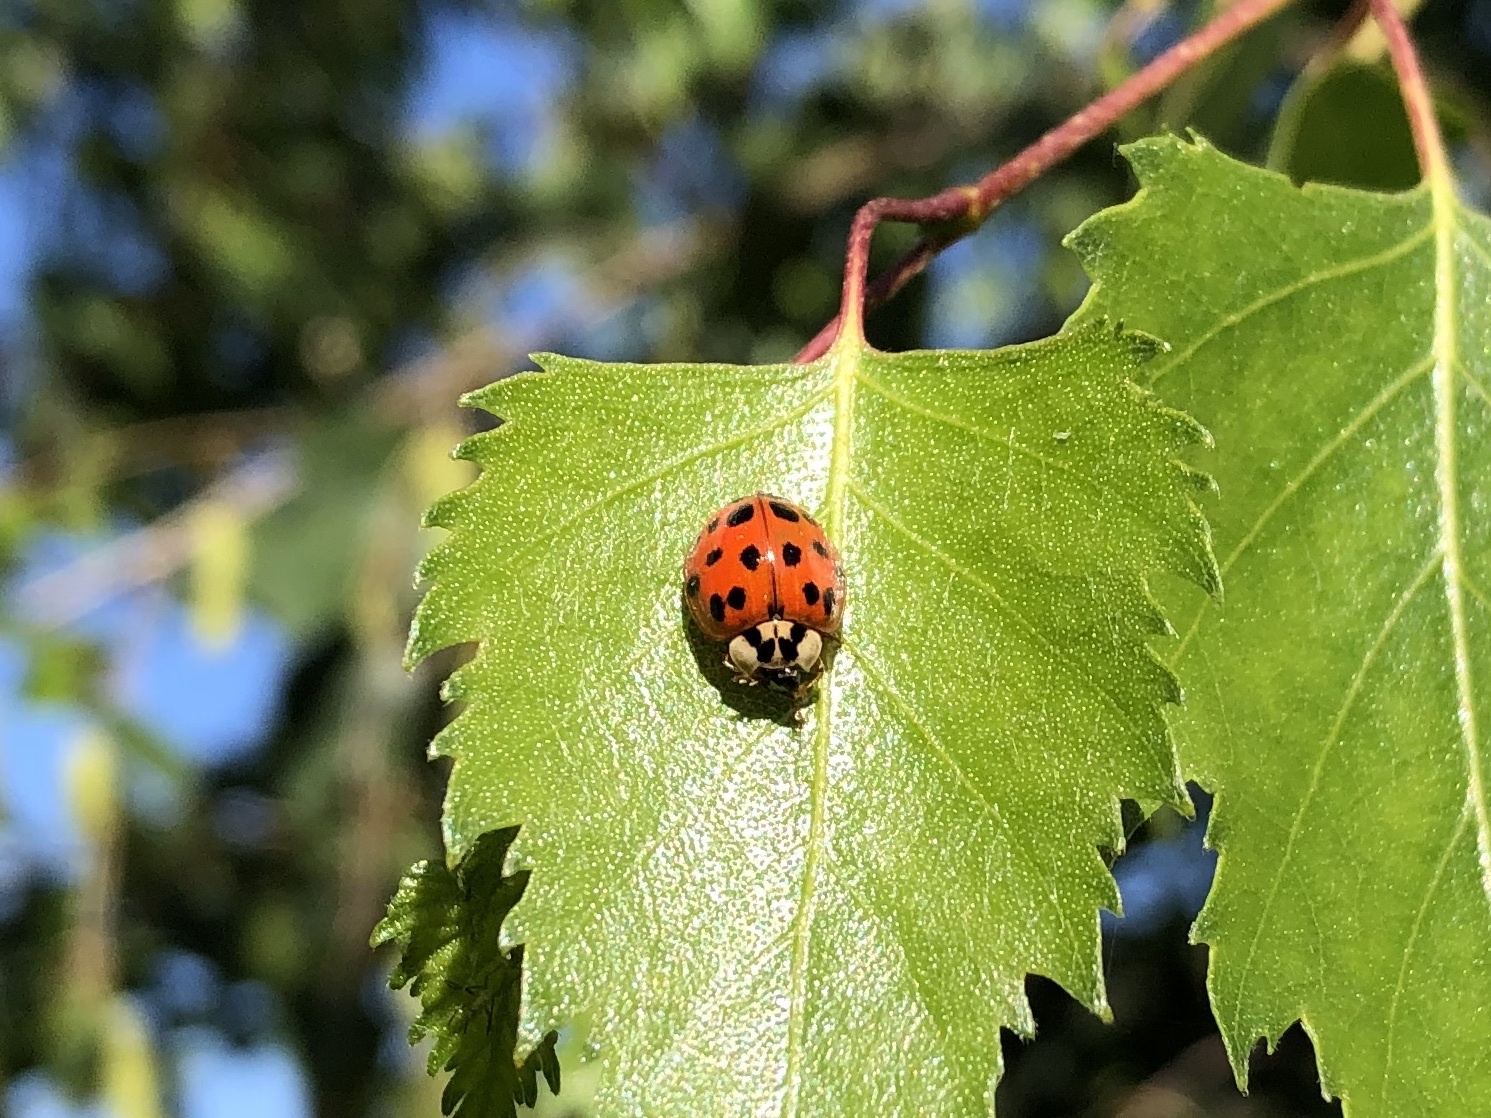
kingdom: Animalia
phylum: Arthropoda
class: Insecta
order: Coleoptera
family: Coccinellidae
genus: Harmonia
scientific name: Harmonia axyridis
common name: Harlequin ladybird
